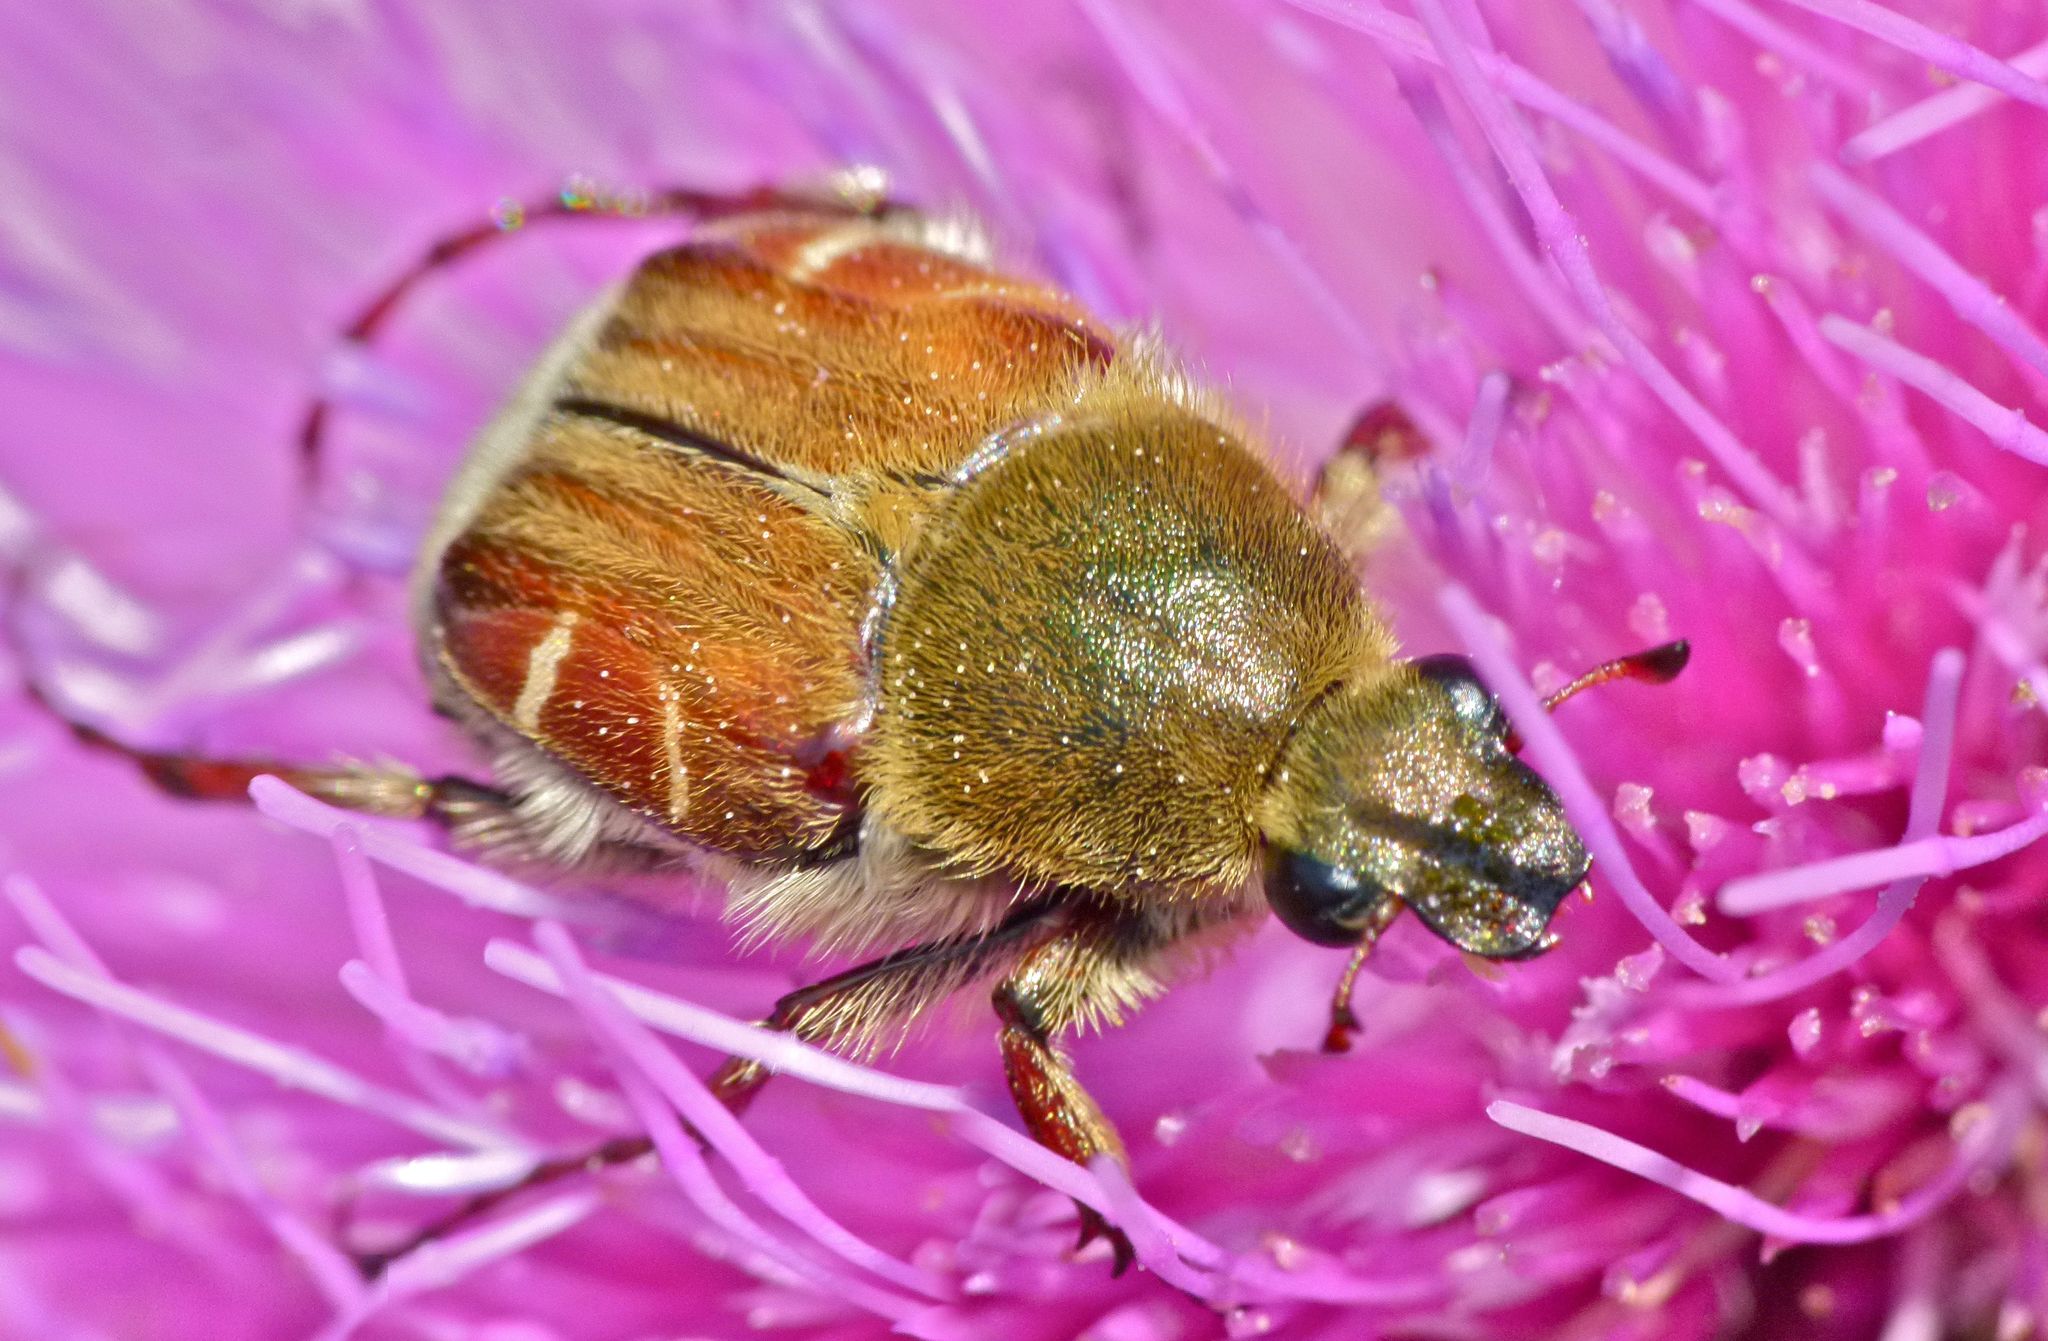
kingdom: Animalia
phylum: Arthropoda
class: Insecta
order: Coleoptera
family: Scarabaeidae
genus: Trichiotinus
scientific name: Trichiotinus piger
